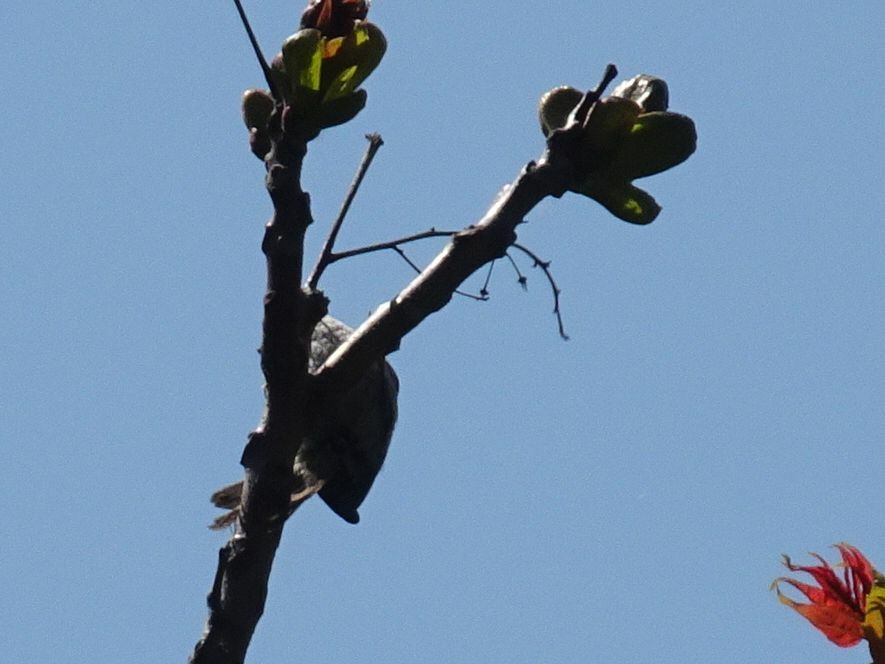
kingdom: Animalia
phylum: Chordata
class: Aves
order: Passeriformes
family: Certhiidae
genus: Certhia
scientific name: Certhia brachydactyla
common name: Short-toed treecreeper
